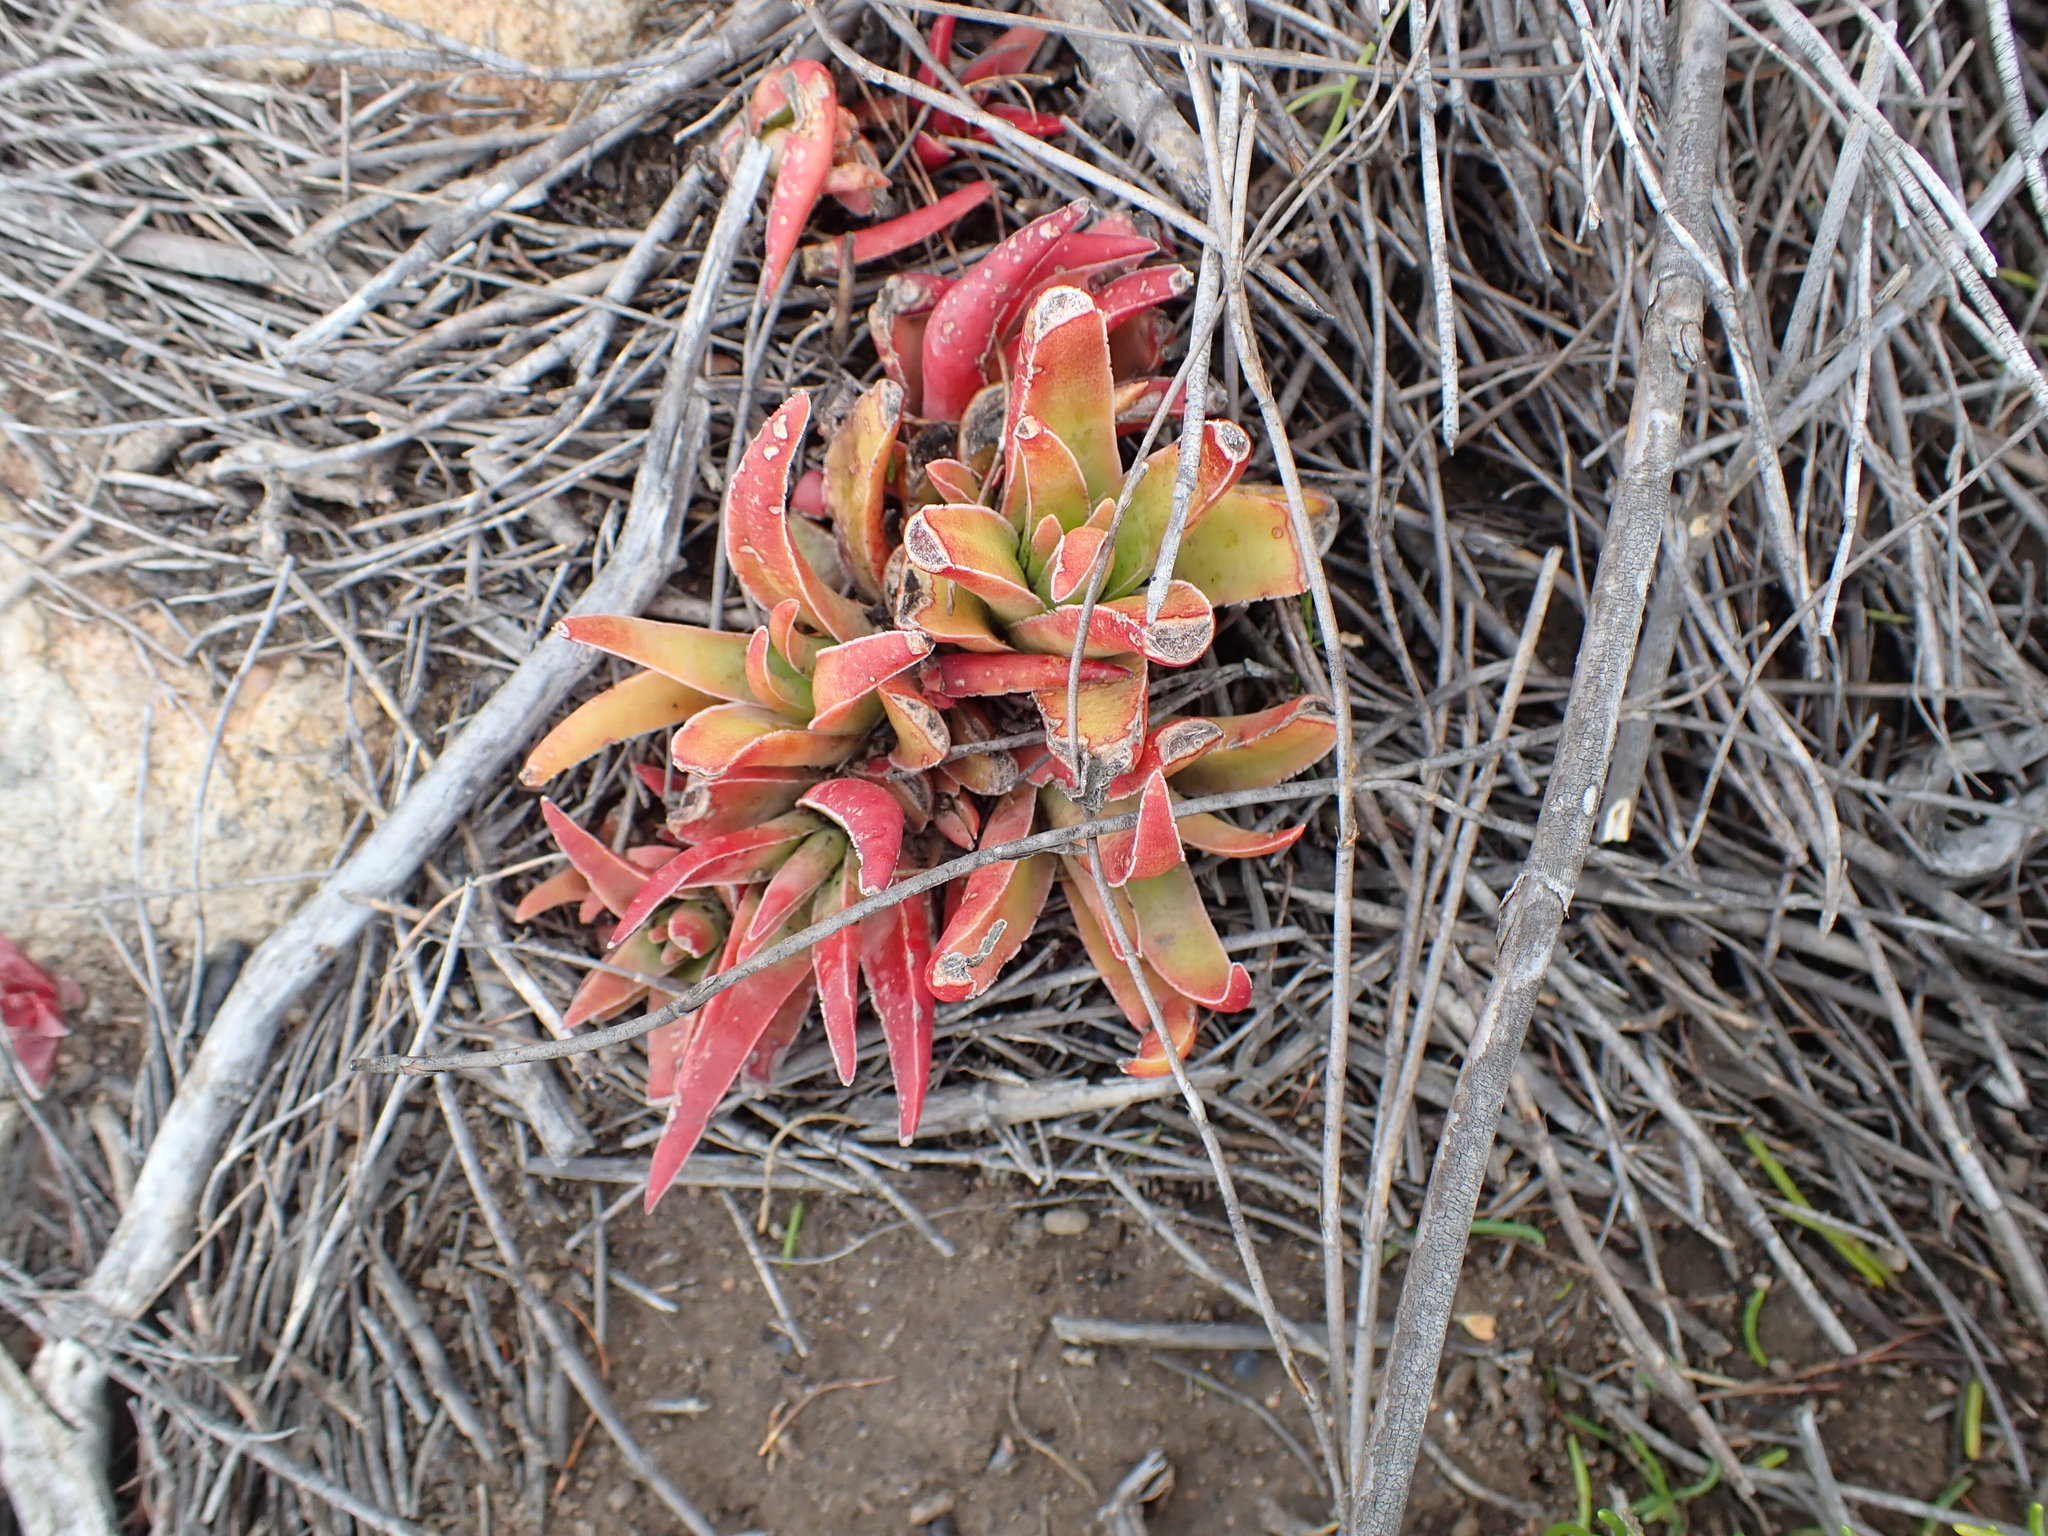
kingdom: Plantae
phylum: Tracheophyta
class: Magnoliopsida
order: Saxifragales
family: Crassulaceae
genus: Crassula
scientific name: Crassula capitella
